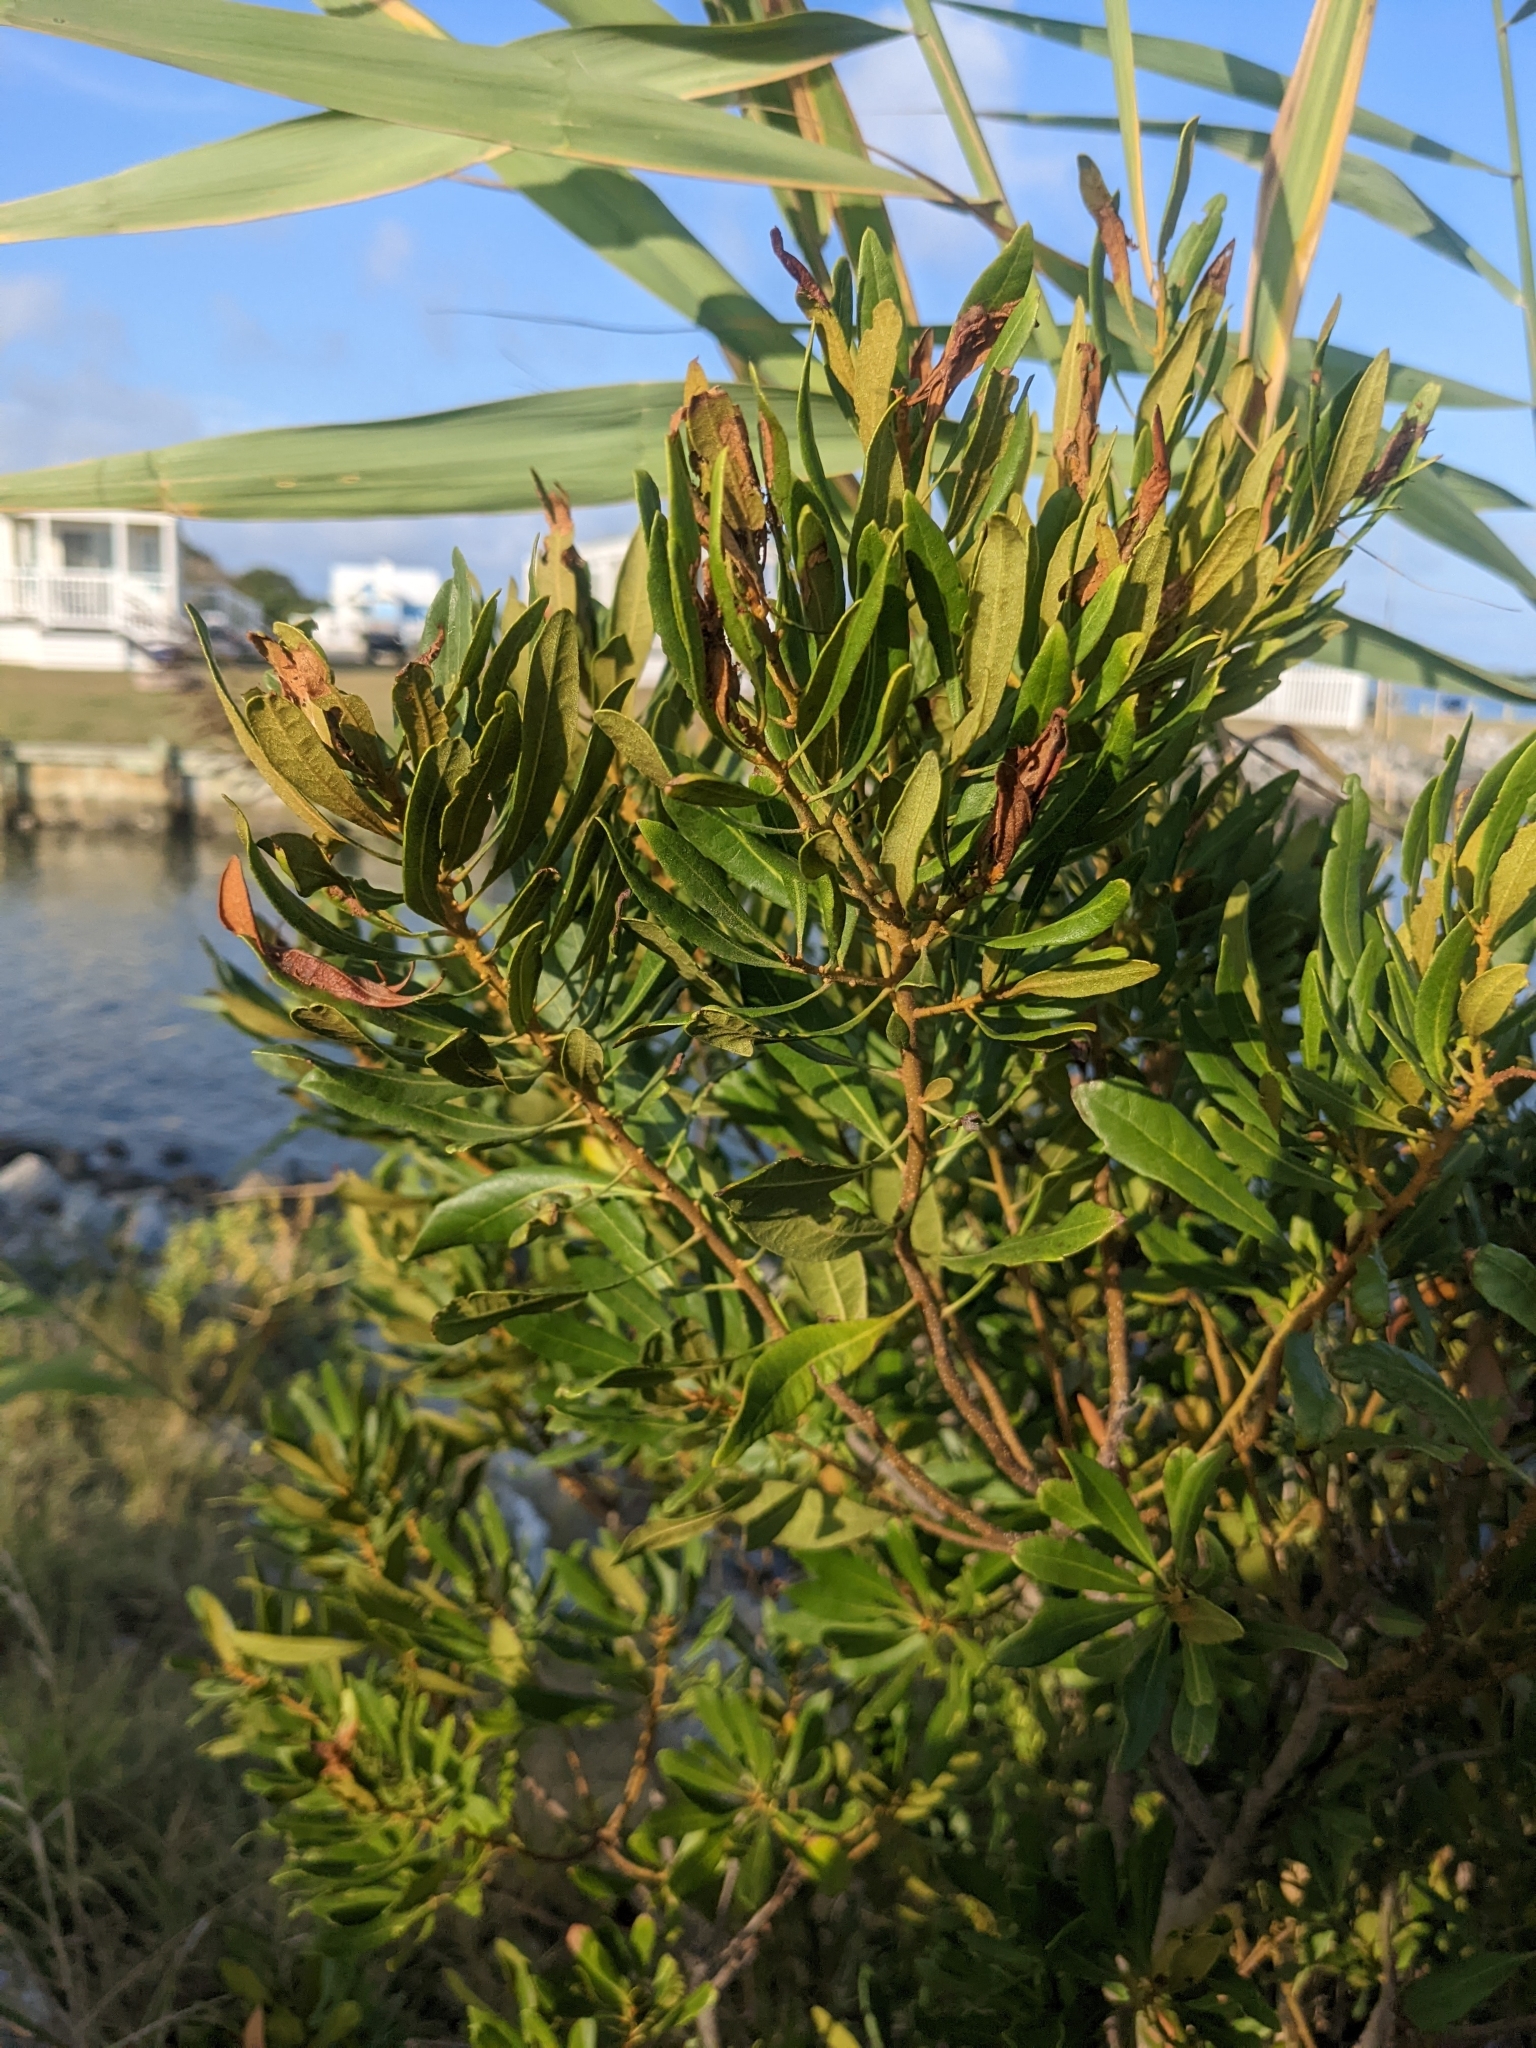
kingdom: Plantae
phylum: Tracheophyta
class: Magnoliopsida
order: Fagales
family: Myricaceae
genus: Morella
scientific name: Morella cerifera
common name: Wax myrtle
